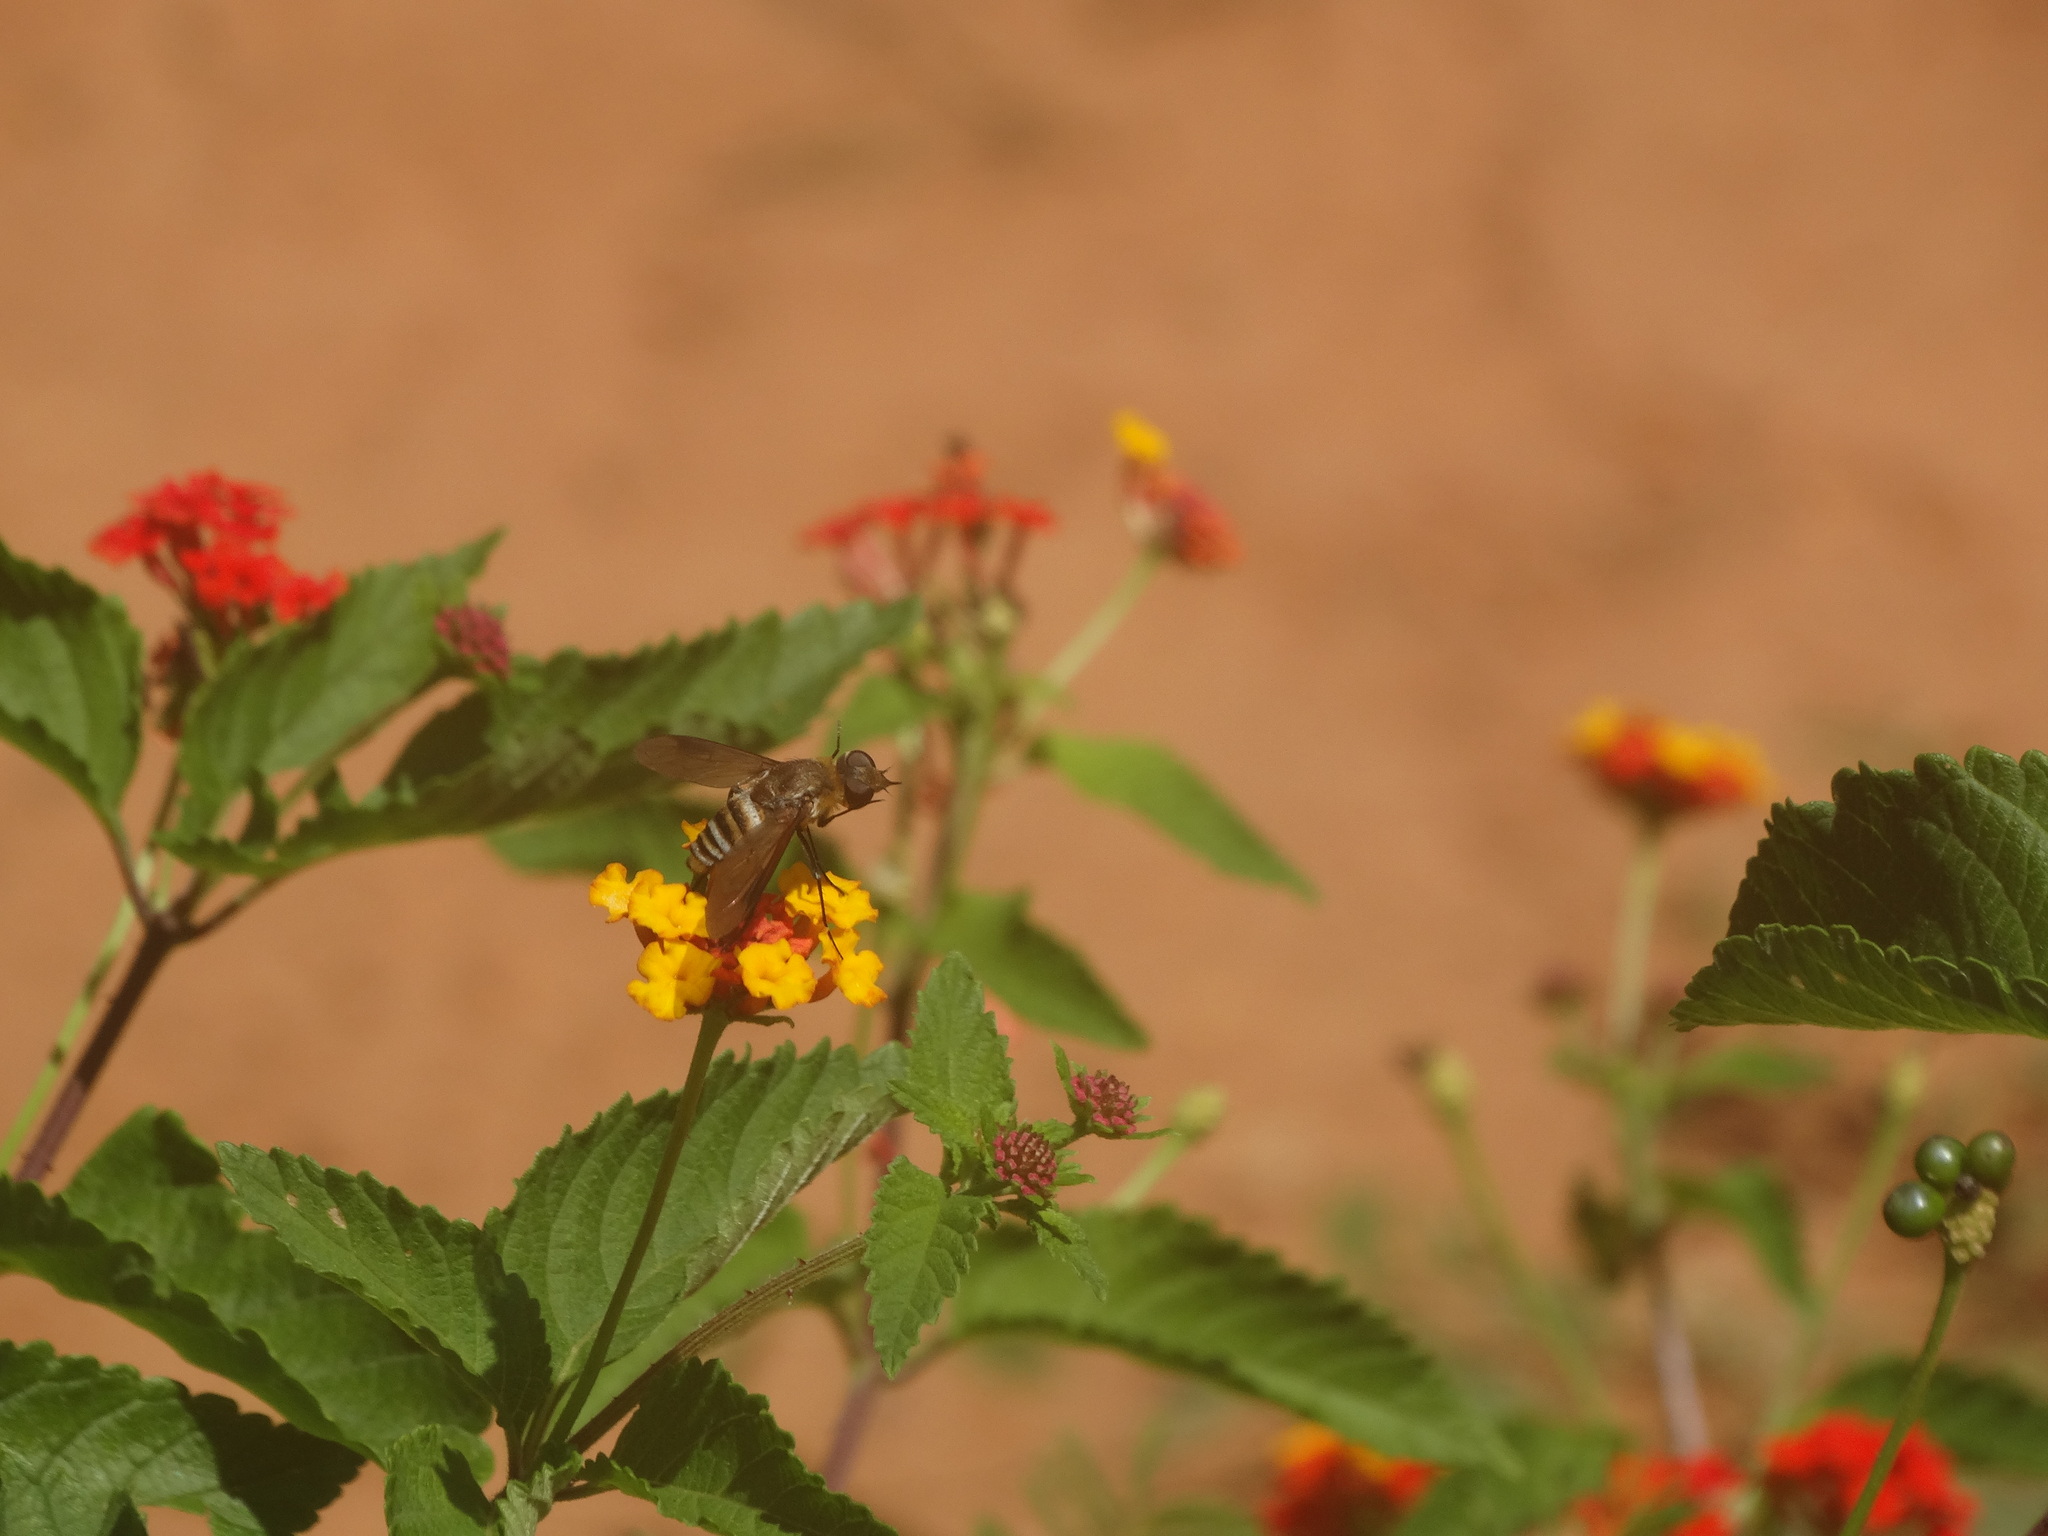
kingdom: Animalia
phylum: Arthropoda
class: Insecta
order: Diptera
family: Bombyliidae
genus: Exoprosopa
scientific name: Exoprosopa
